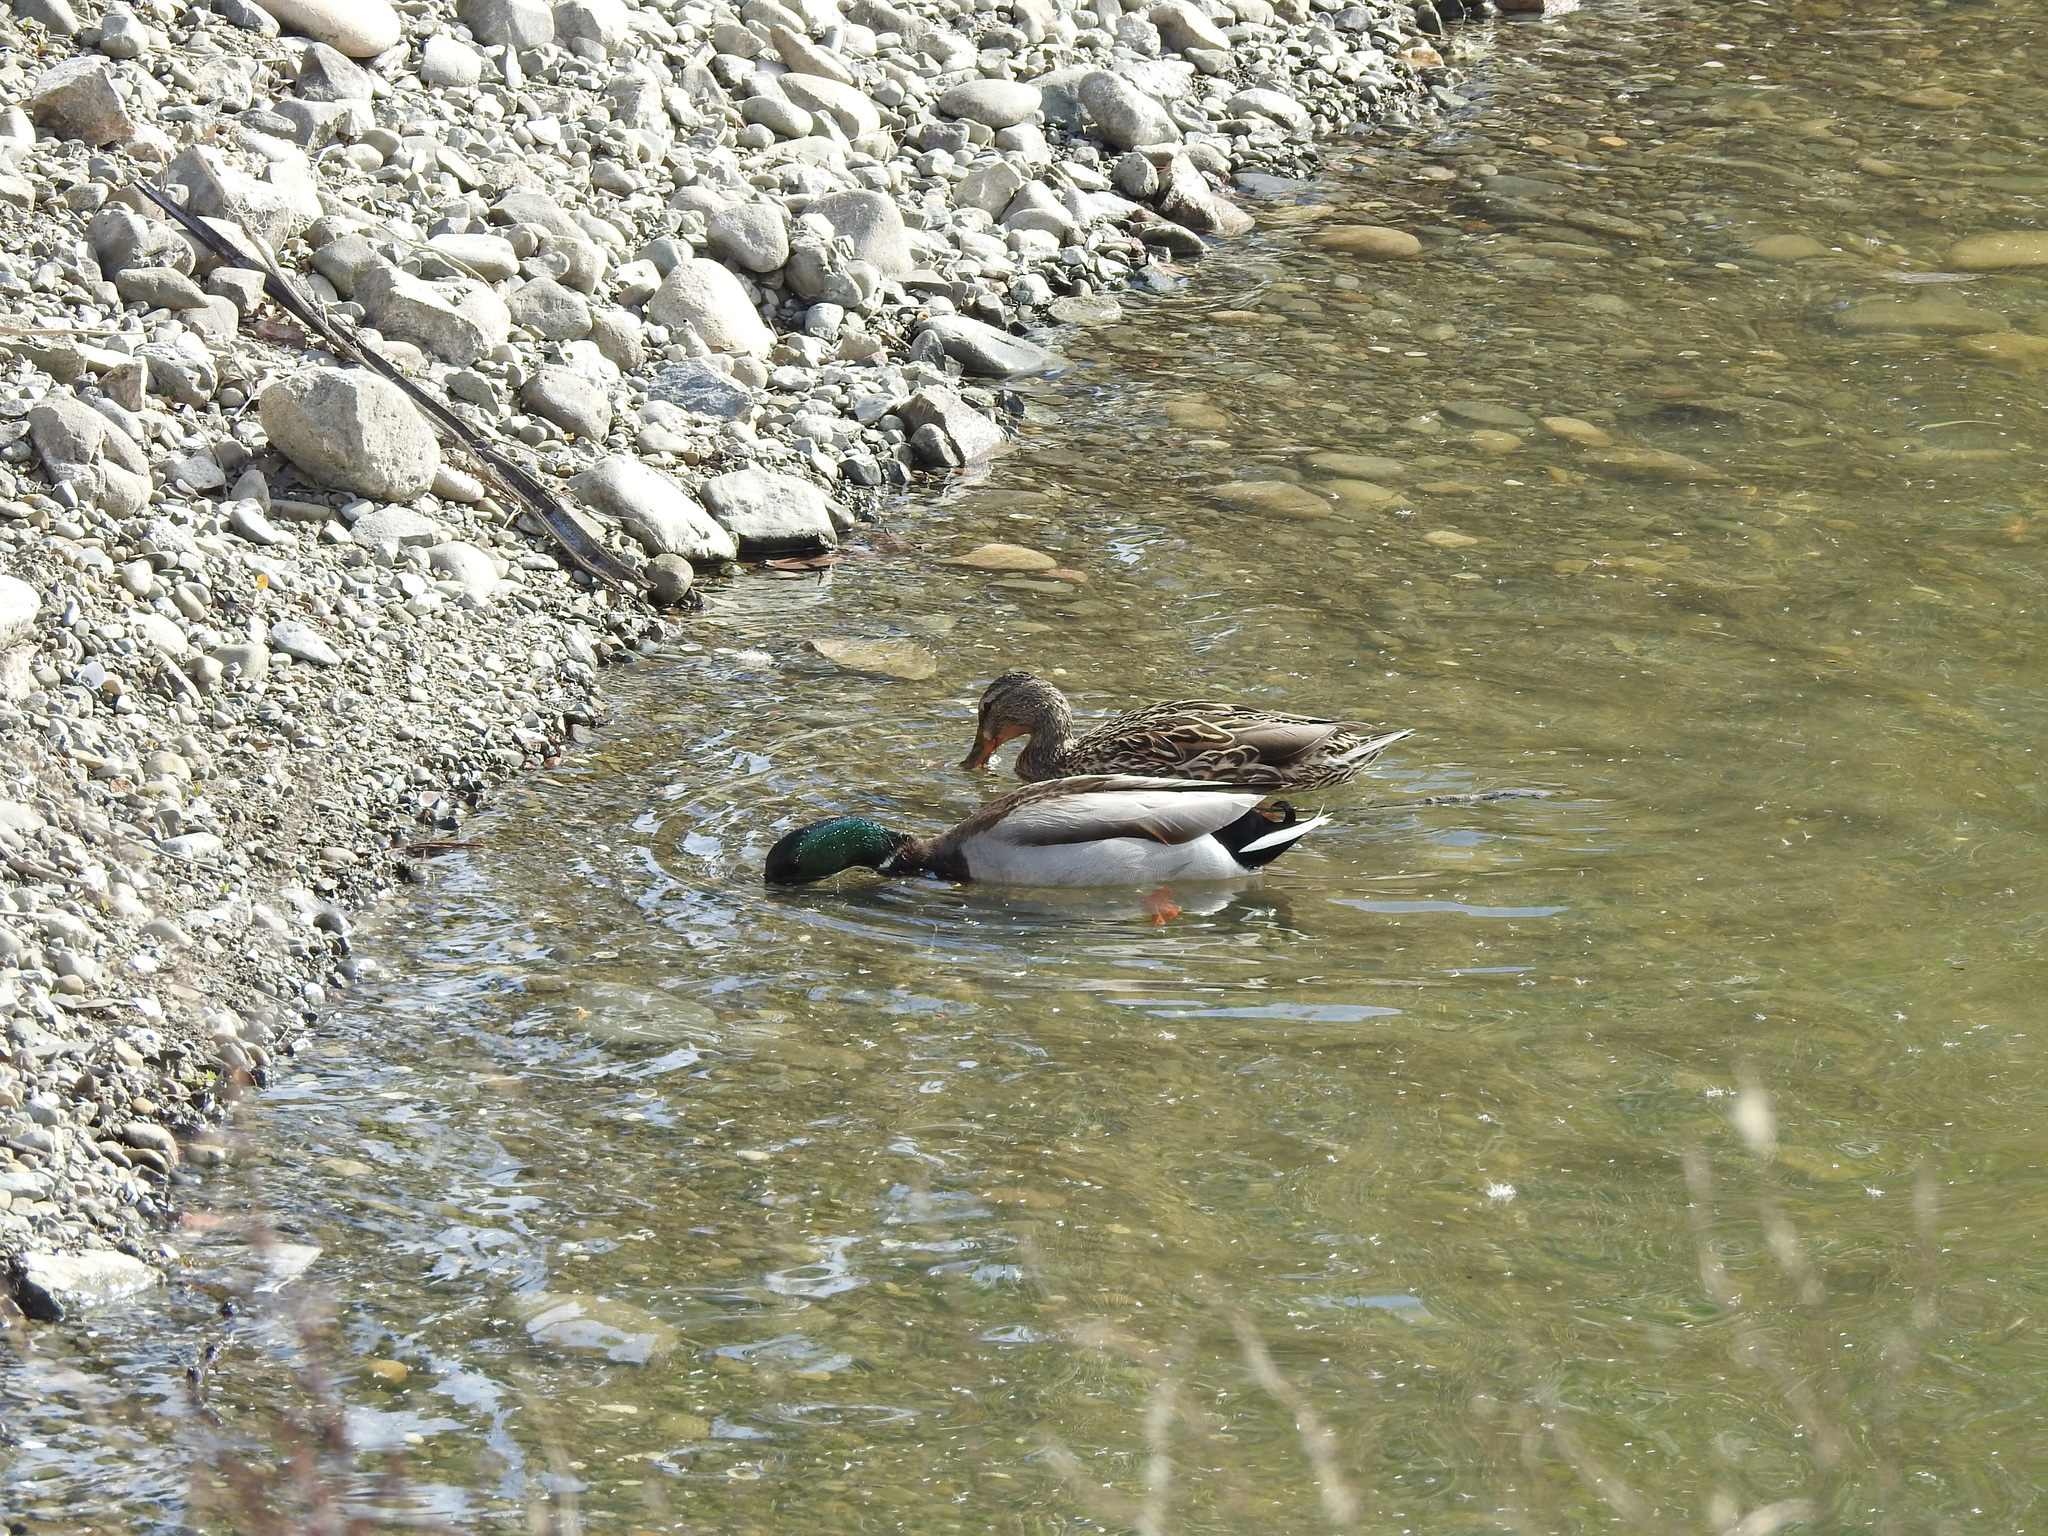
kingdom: Animalia
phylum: Chordata
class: Aves
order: Anseriformes
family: Anatidae
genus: Anas
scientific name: Anas platyrhynchos
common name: Mallard
